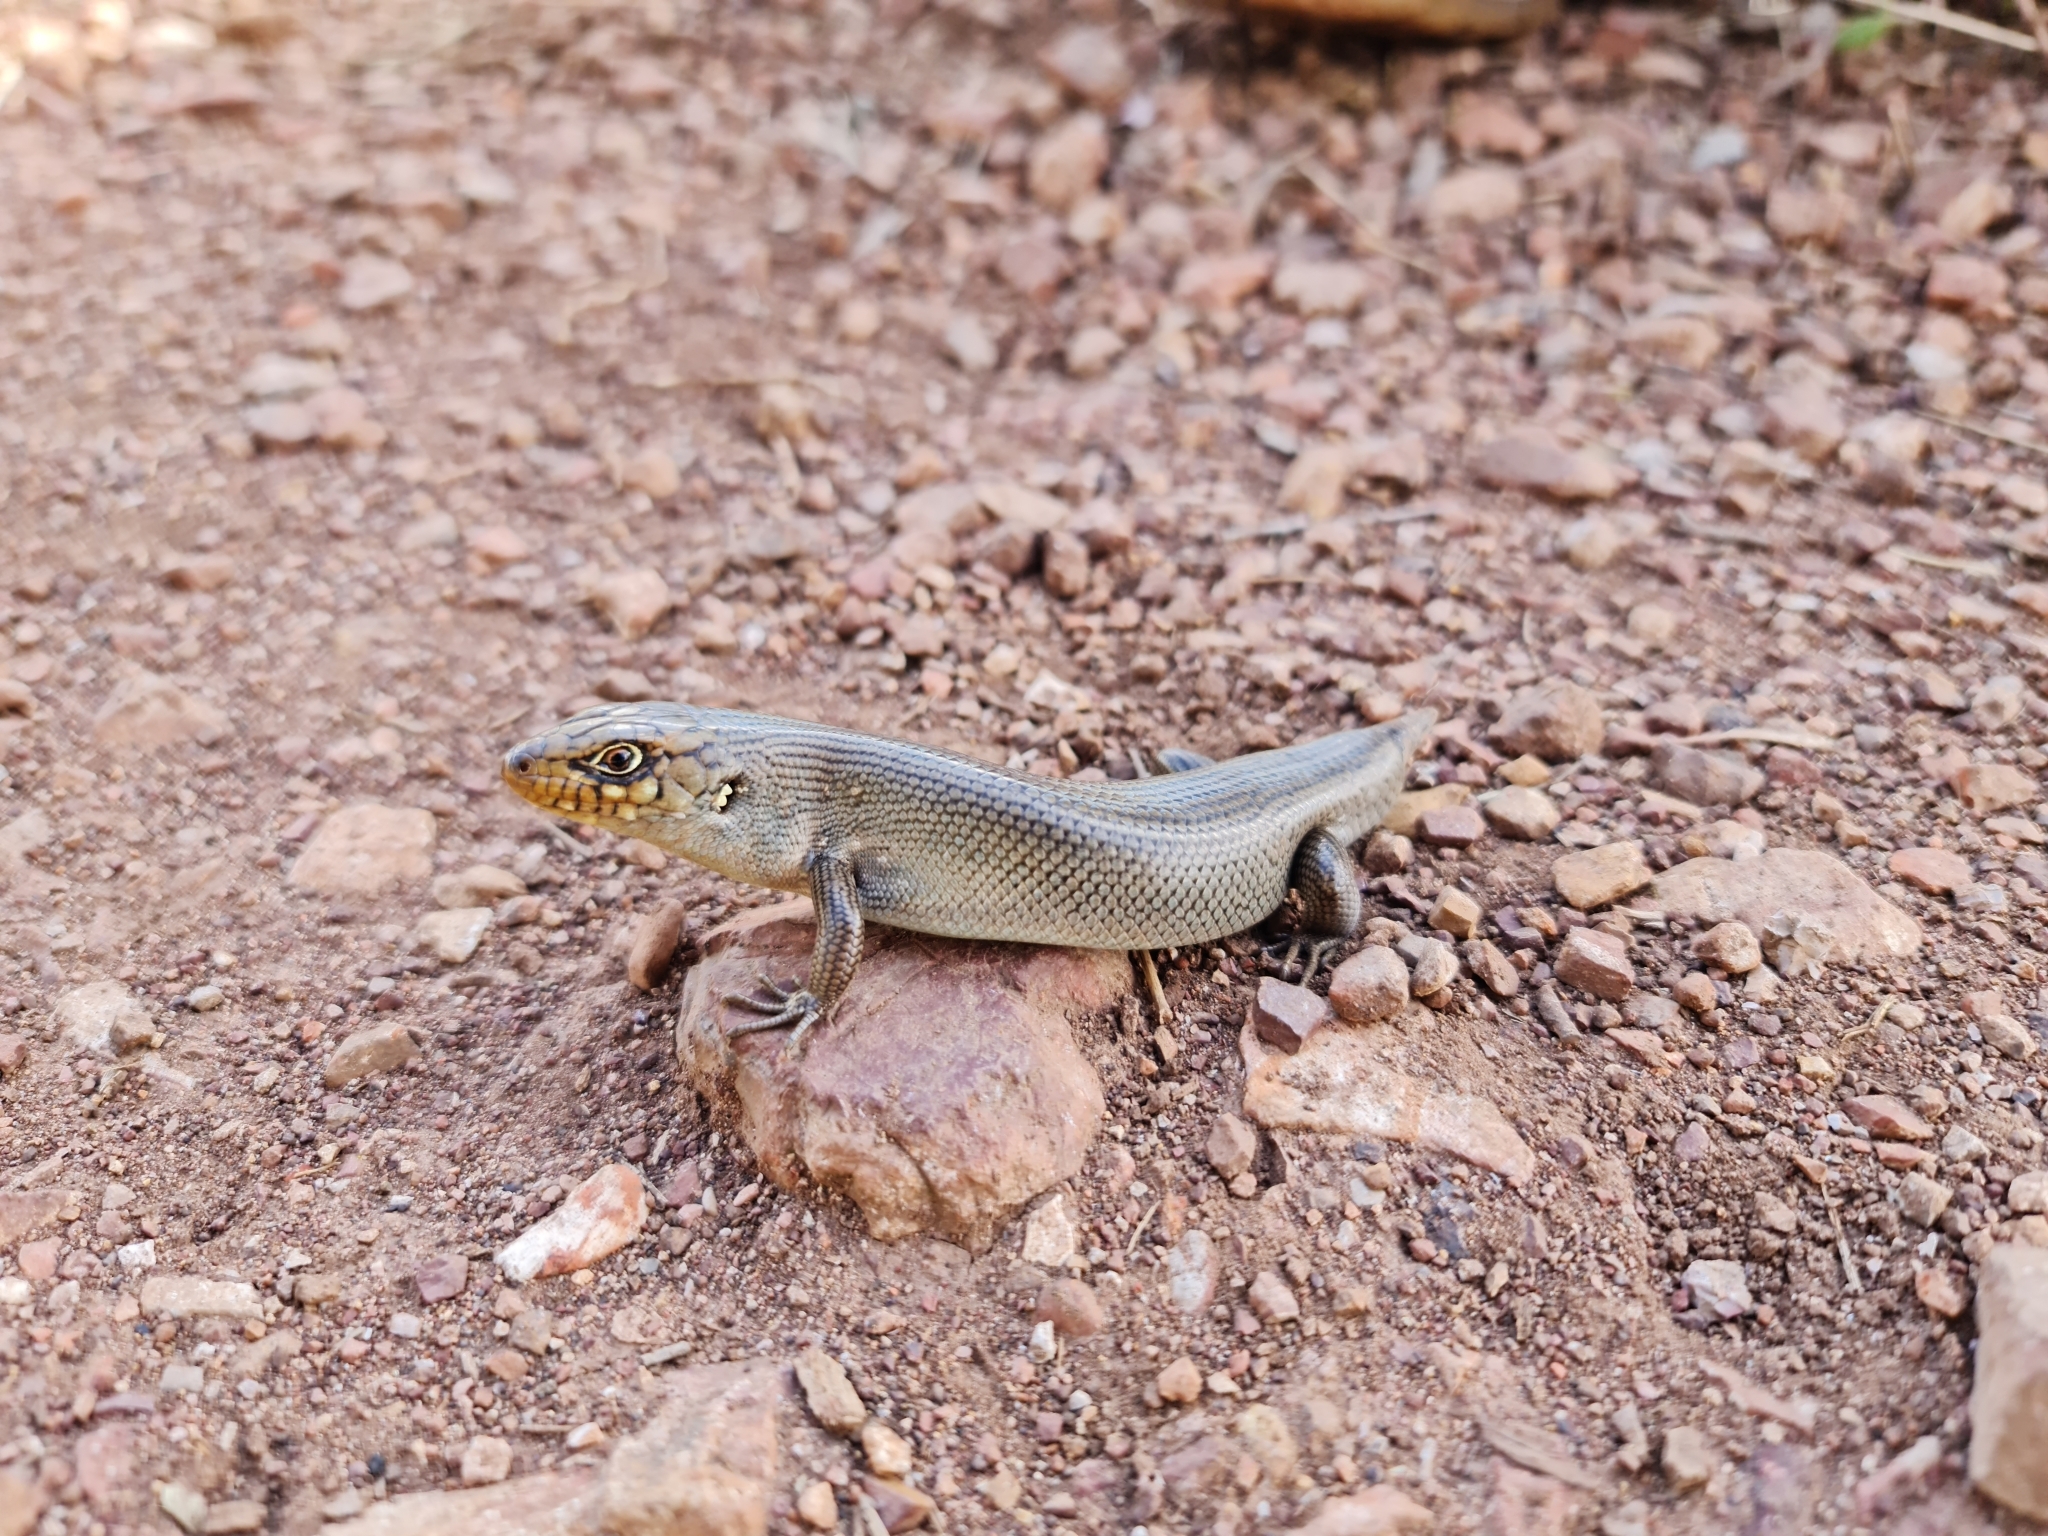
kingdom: Animalia
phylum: Chordata
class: Squamata
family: Scincidae
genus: Liopholis
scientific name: Liopholis modesta
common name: Eastern ranges rock-skink
